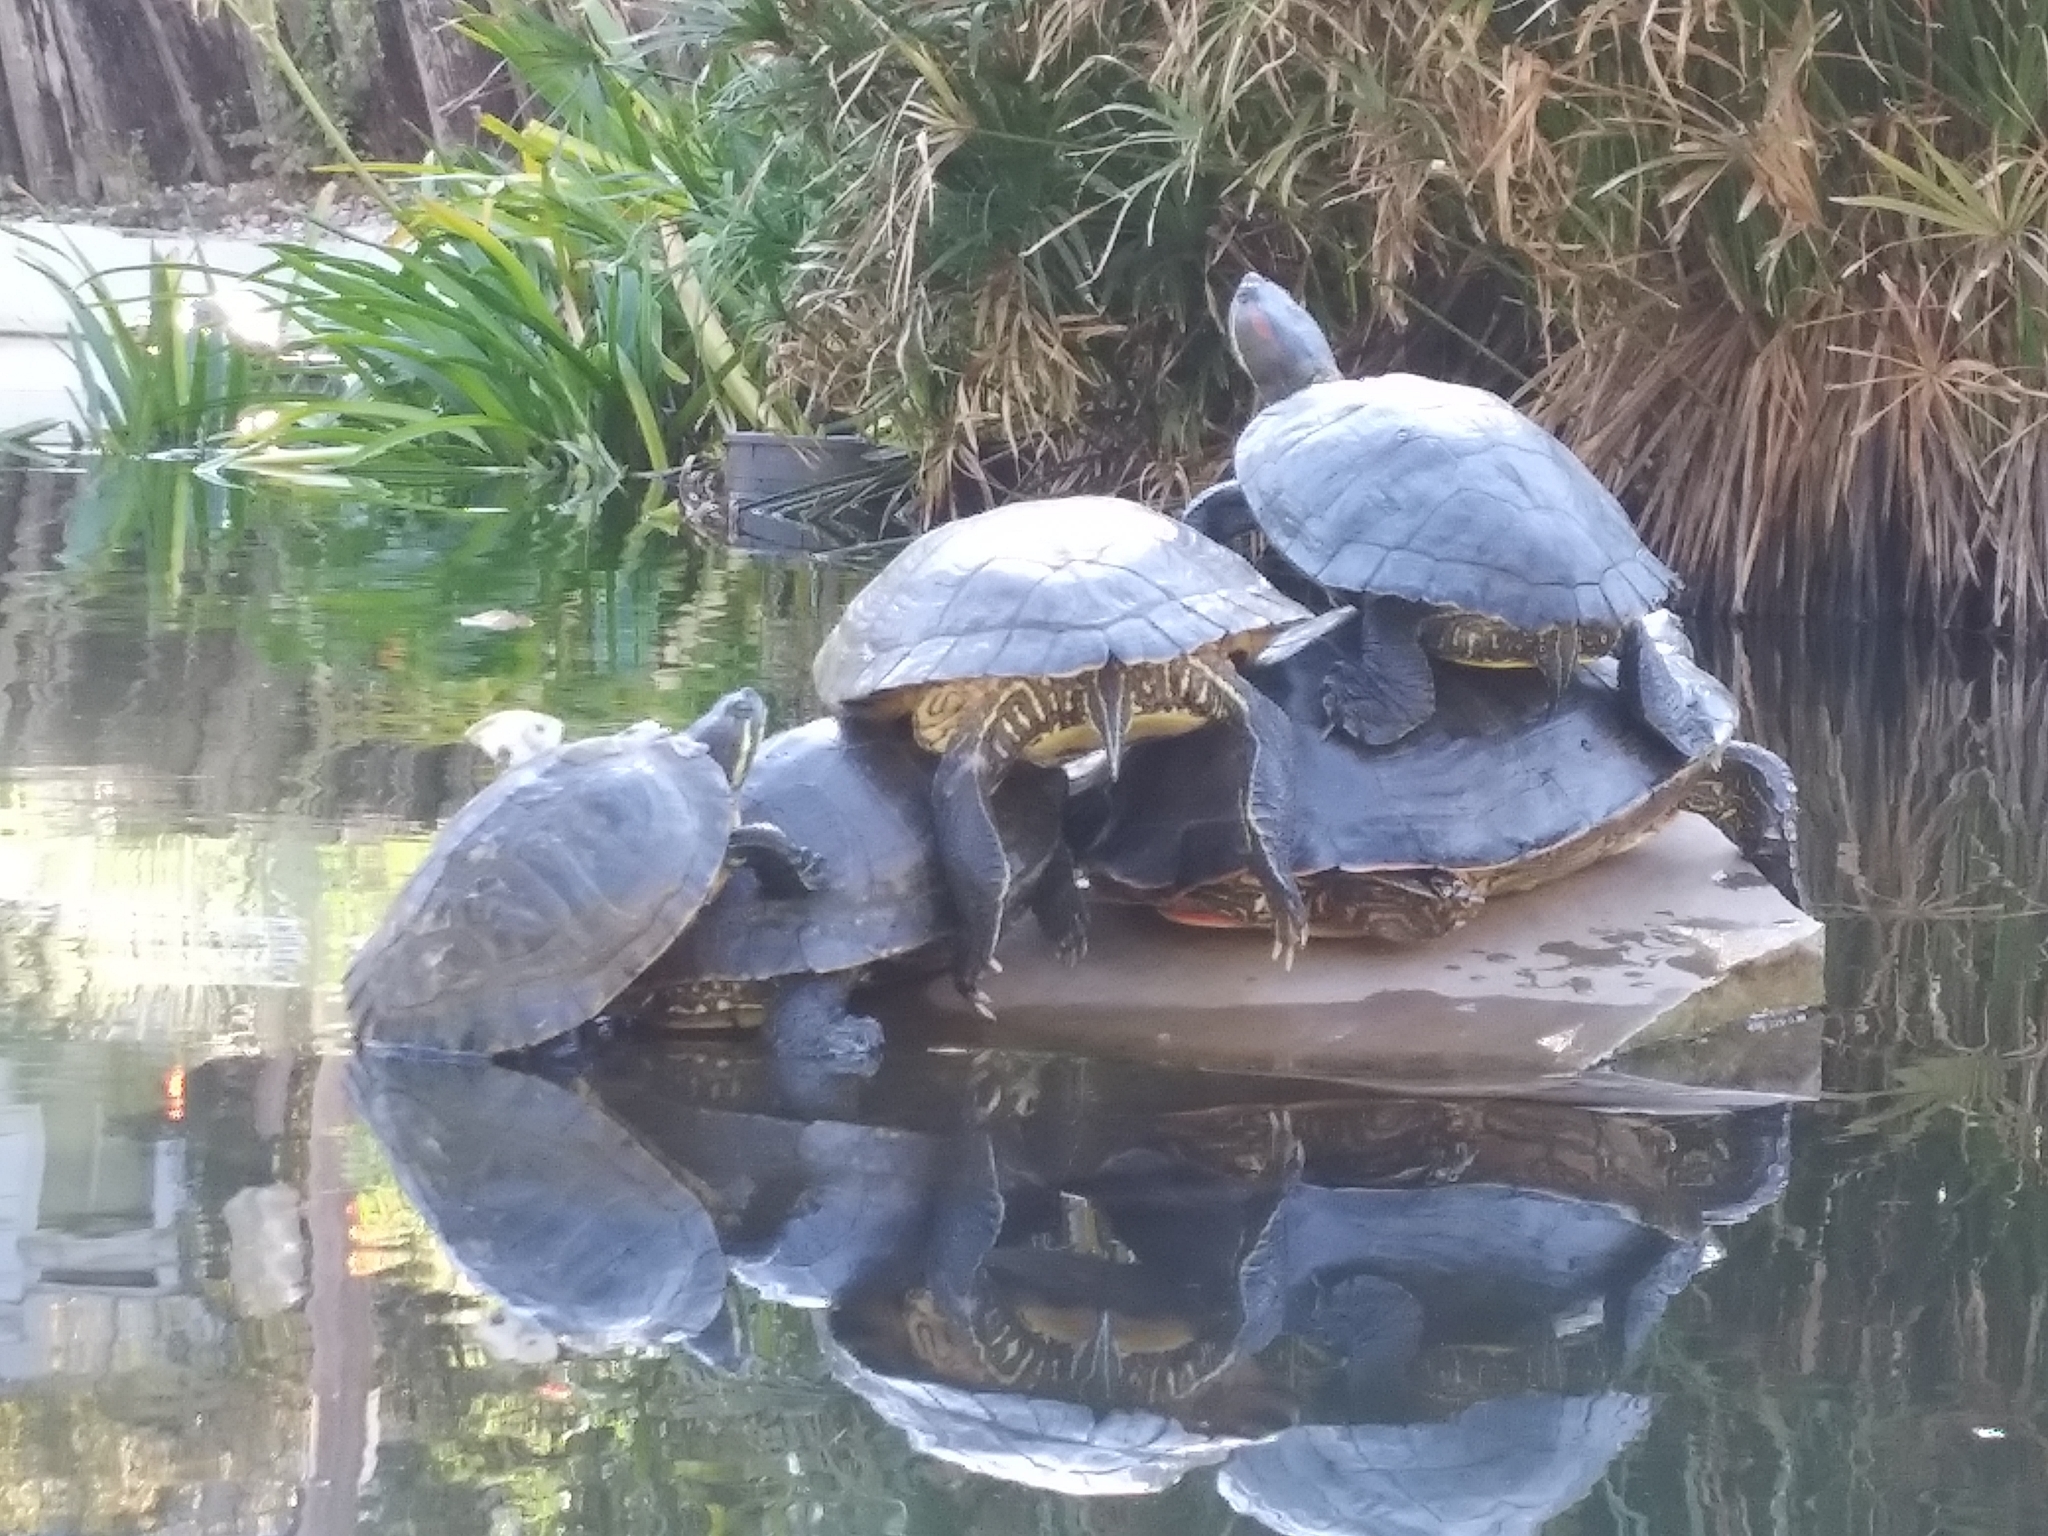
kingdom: Animalia
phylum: Chordata
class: Testudines
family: Emydidae
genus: Trachemys
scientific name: Trachemys scripta
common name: Slider
